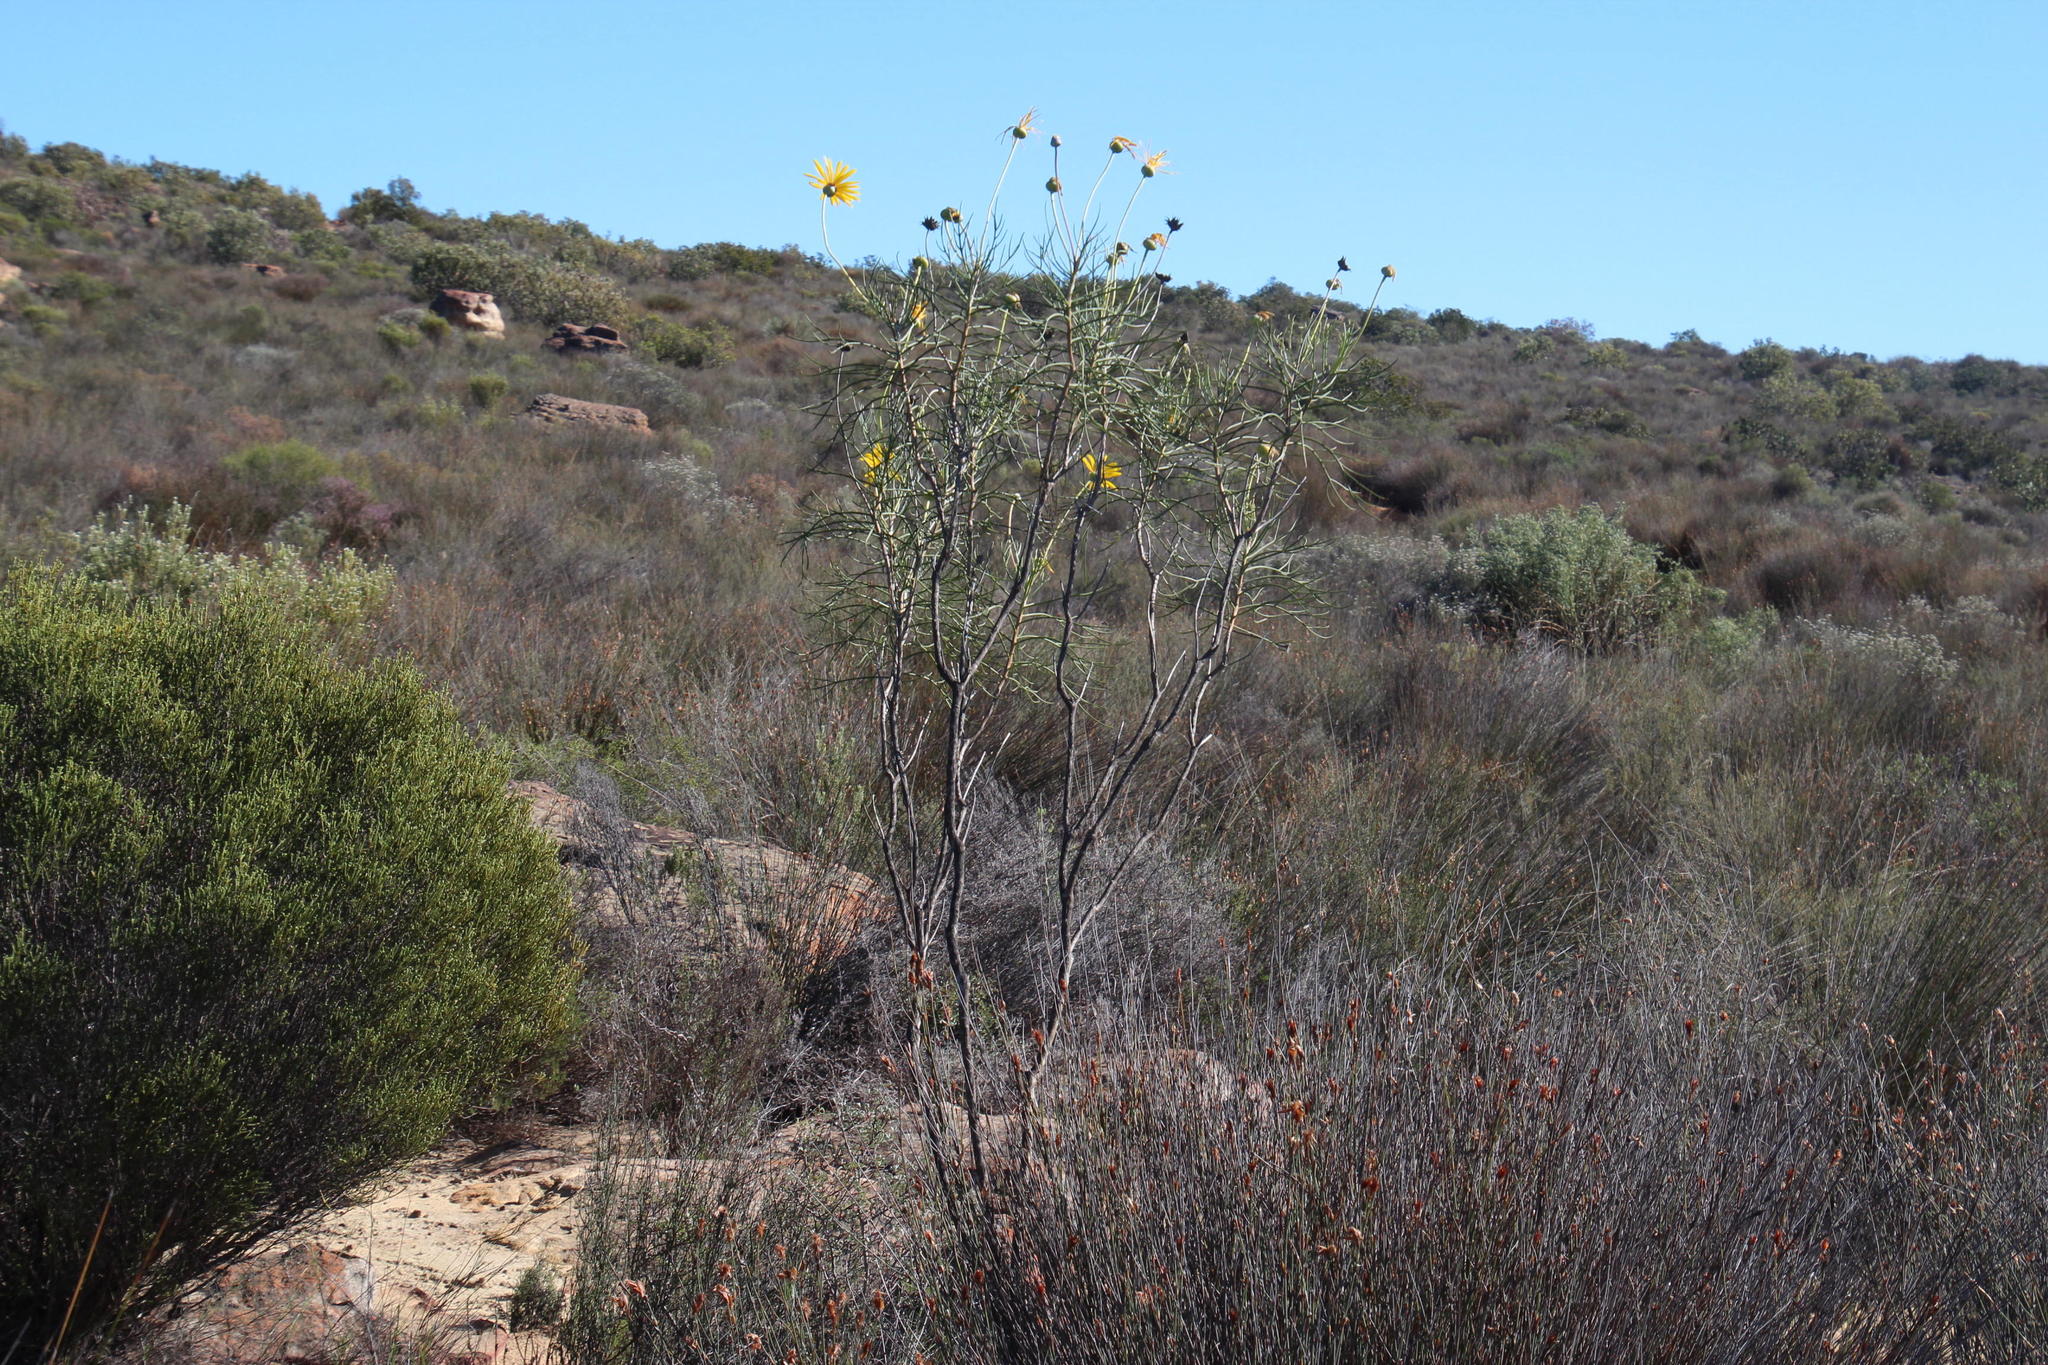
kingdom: Plantae
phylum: Tracheophyta
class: Magnoliopsida
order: Asterales
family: Asteraceae
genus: Euryops
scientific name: Euryops speciosissimus
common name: Clanwilliam daisy
